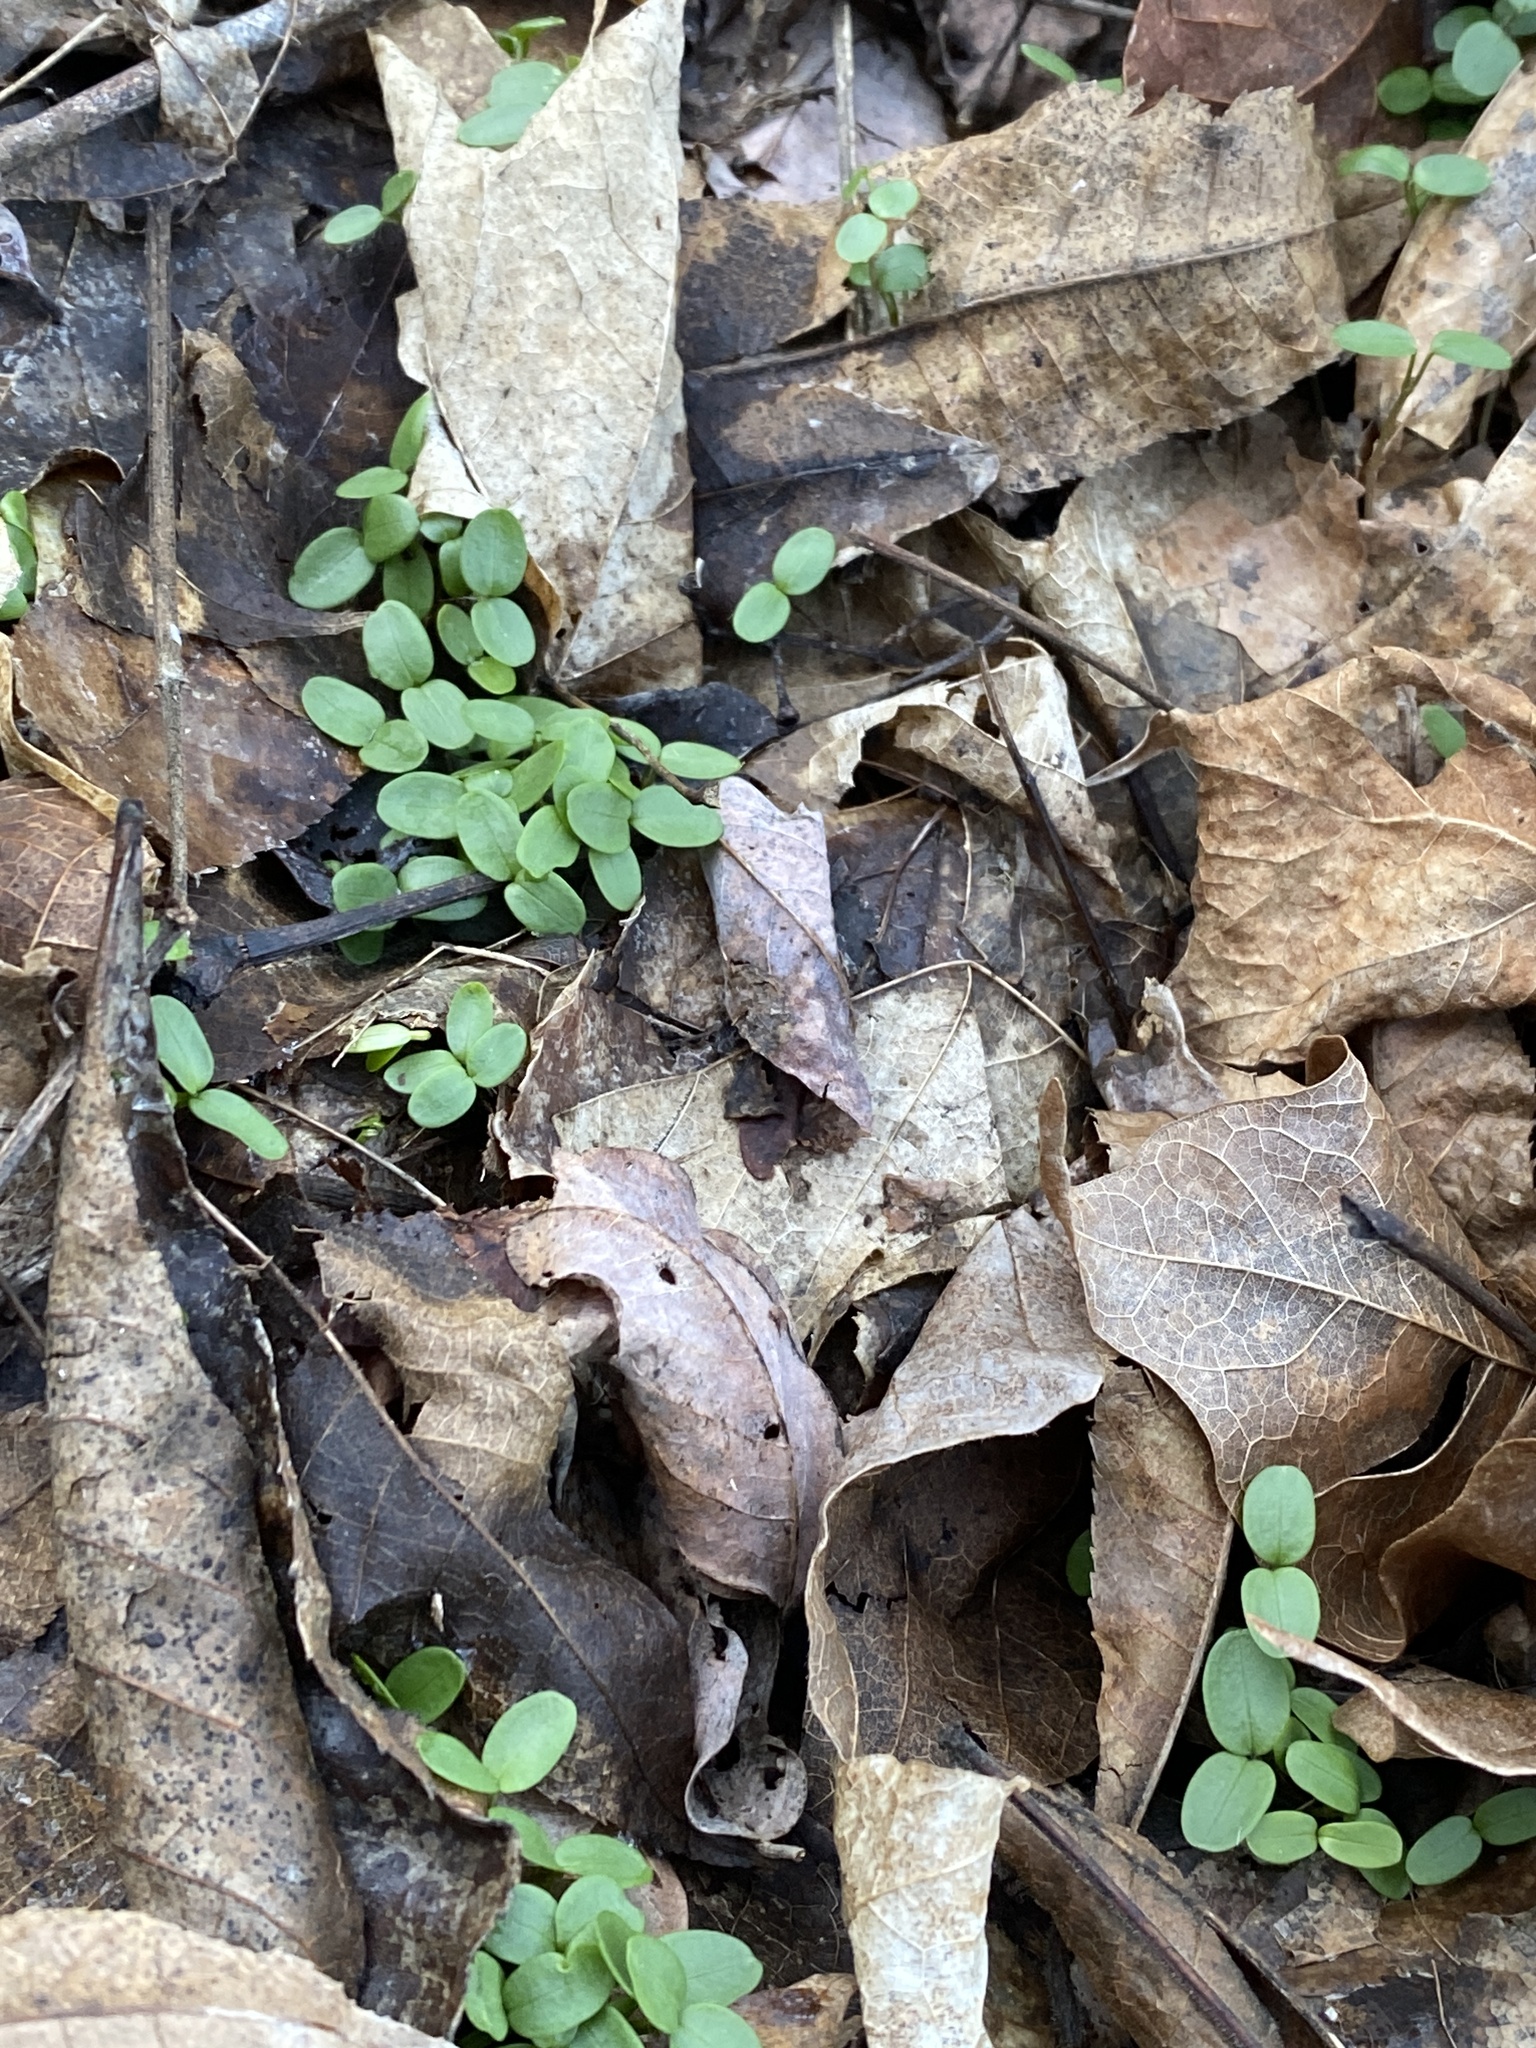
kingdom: Plantae
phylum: Tracheophyta
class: Magnoliopsida
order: Brassicales
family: Brassicaceae
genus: Alliaria
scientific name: Alliaria petiolata
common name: Garlic mustard
